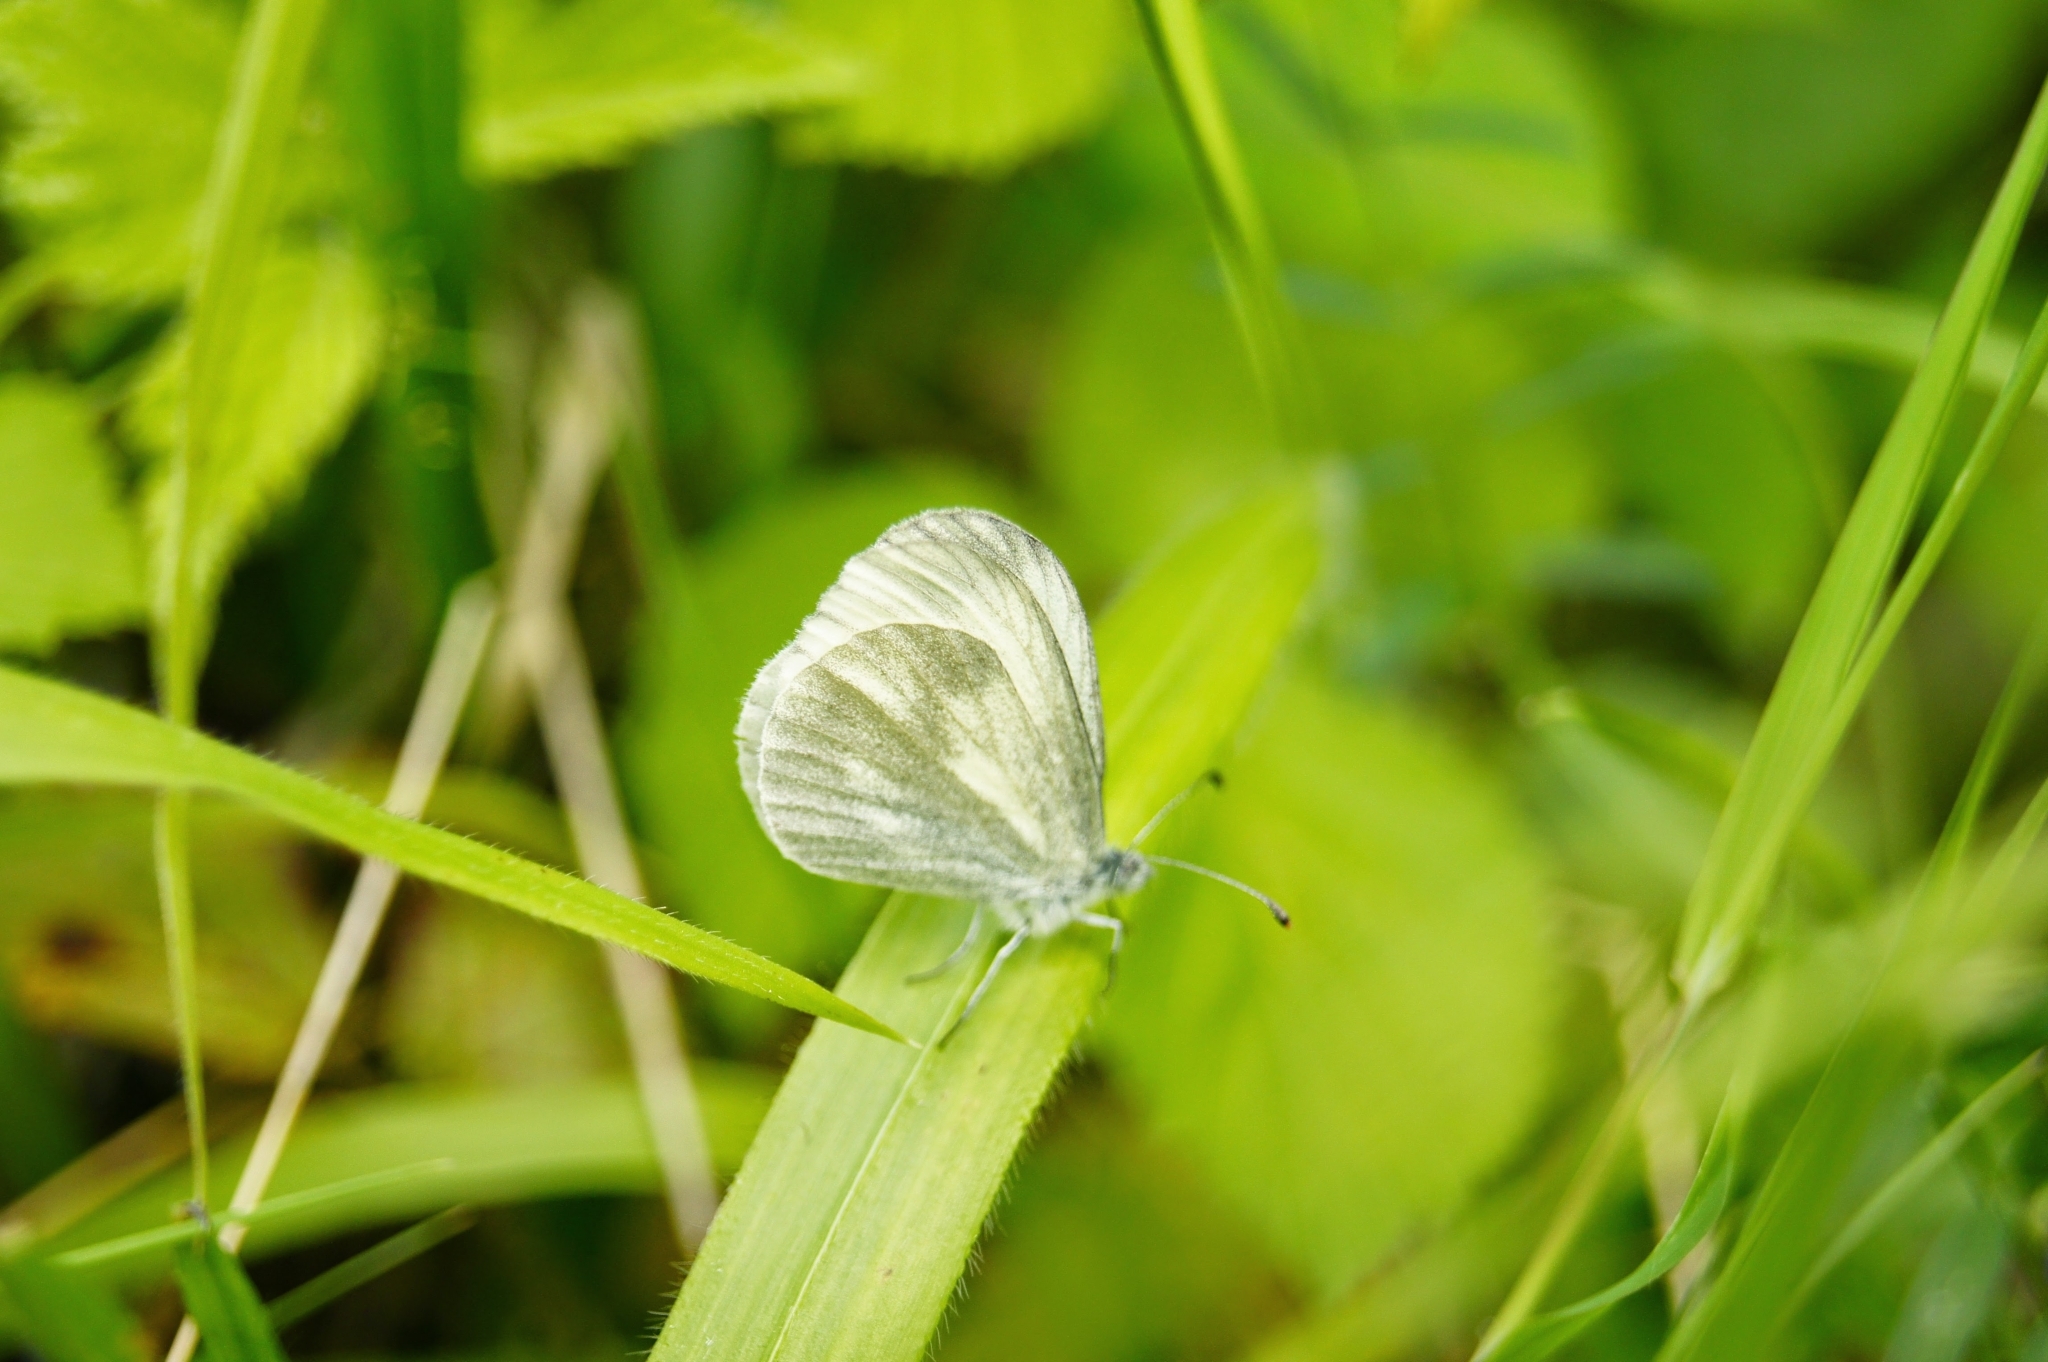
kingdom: Animalia
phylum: Arthropoda
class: Insecta
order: Lepidoptera
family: Pieridae
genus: Leptidea
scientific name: Leptidea sinapis
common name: Wood white
